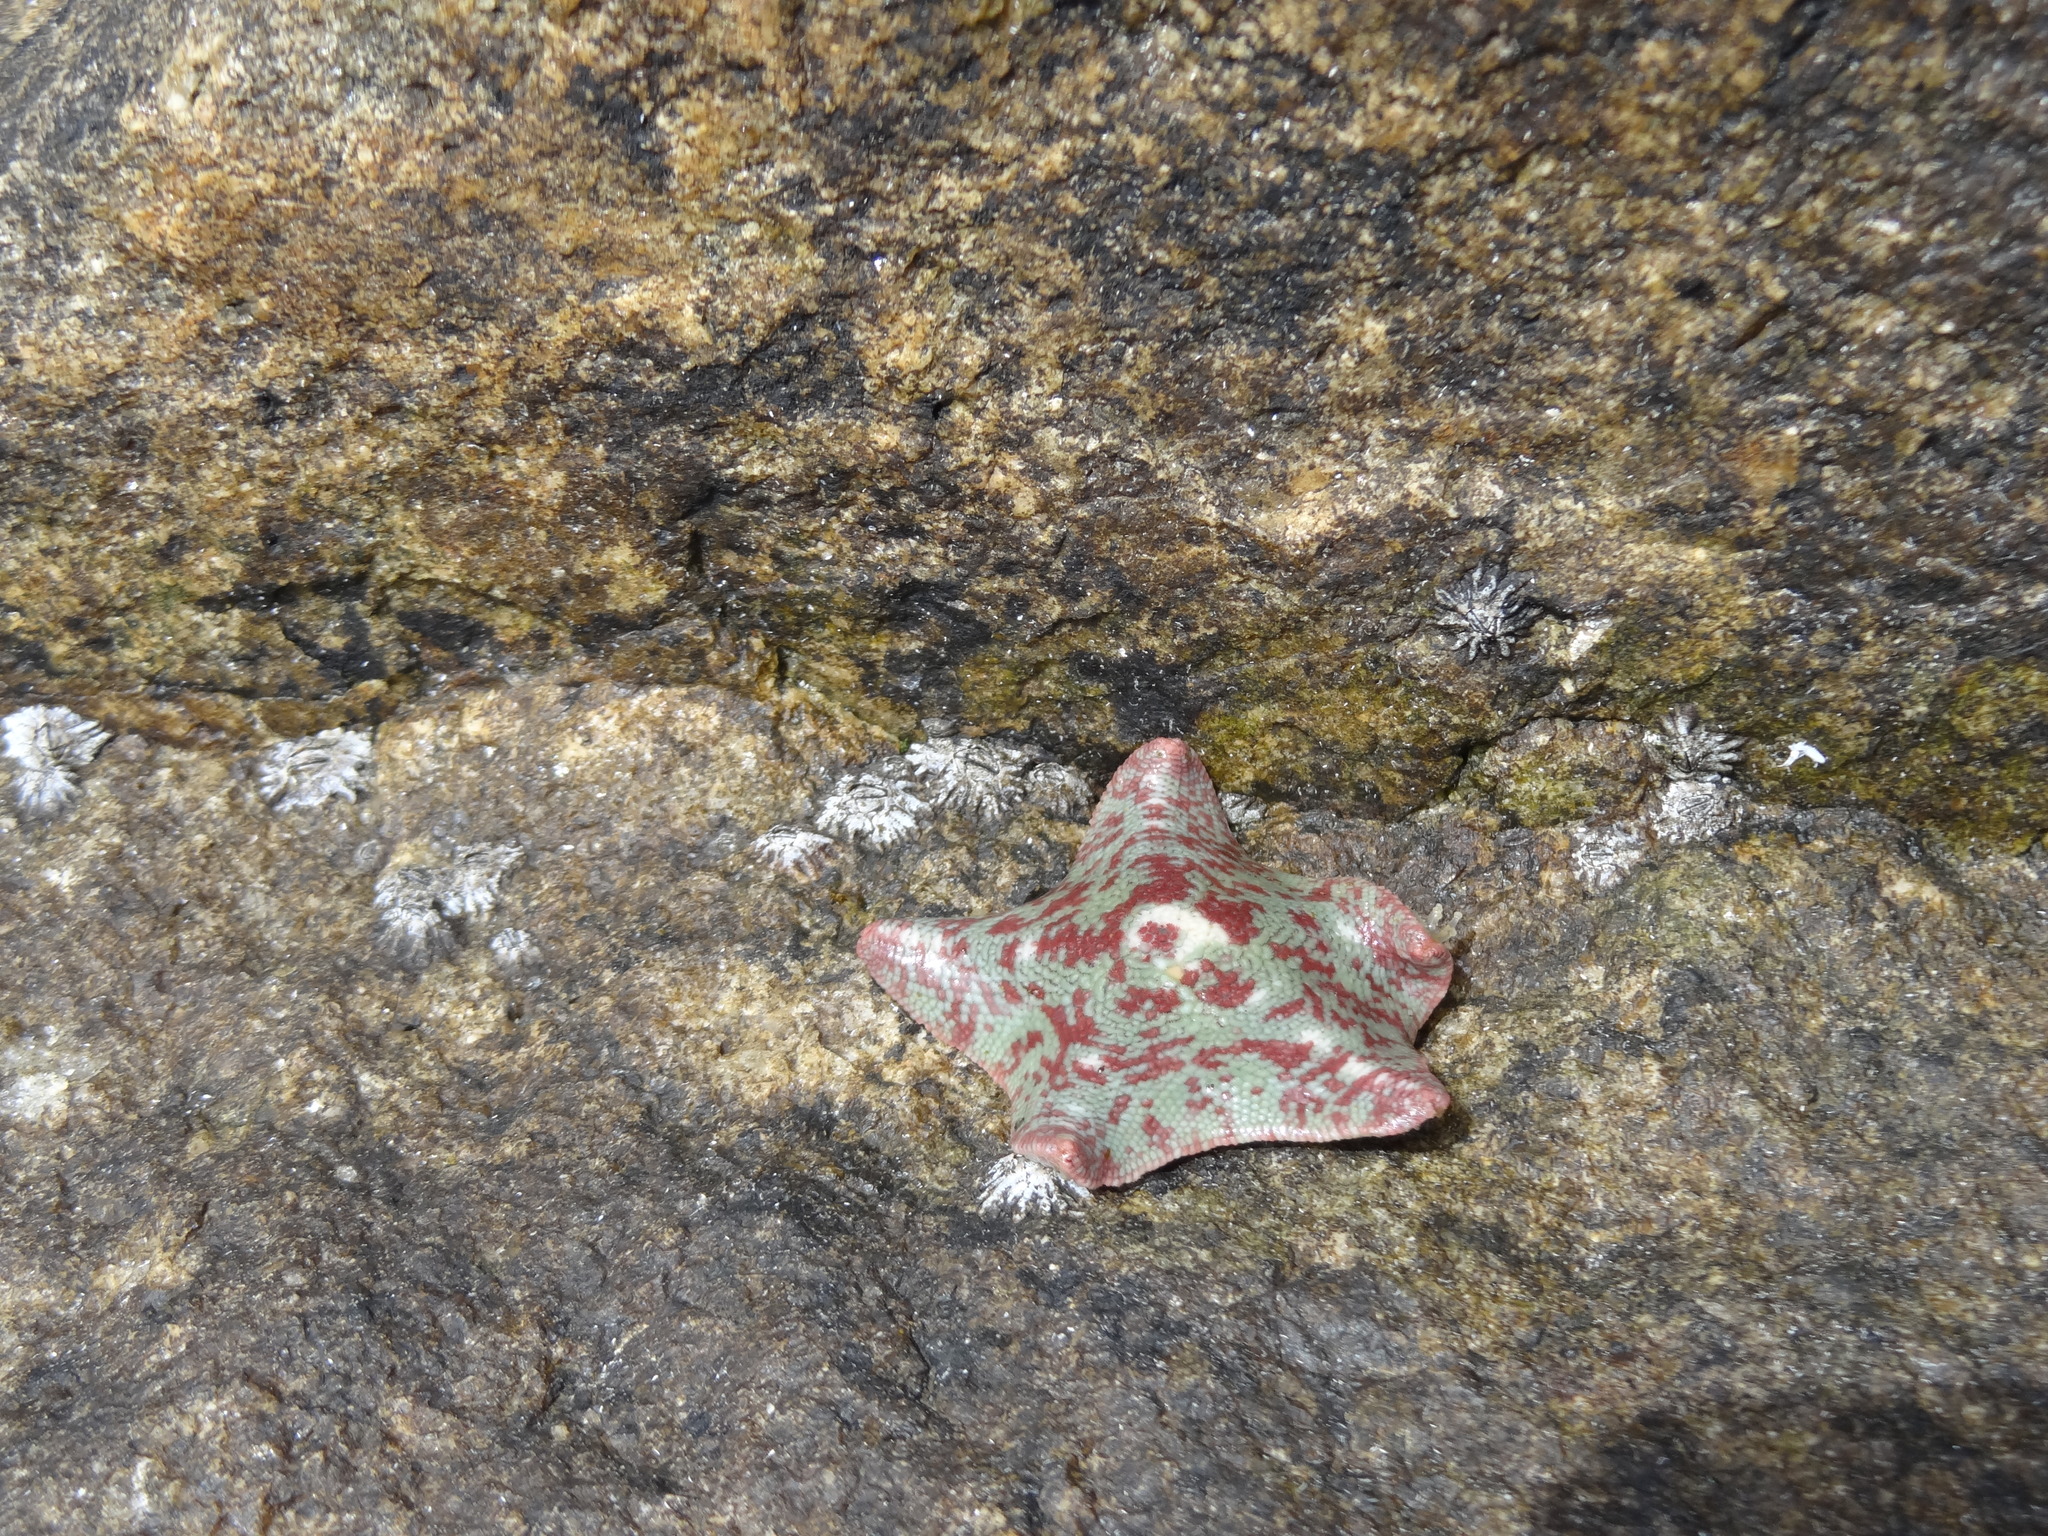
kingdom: Animalia
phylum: Echinodermata
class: Asteroidea
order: Valvatida
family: Asterinidae
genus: Patiria
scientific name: Patiria chilensis
